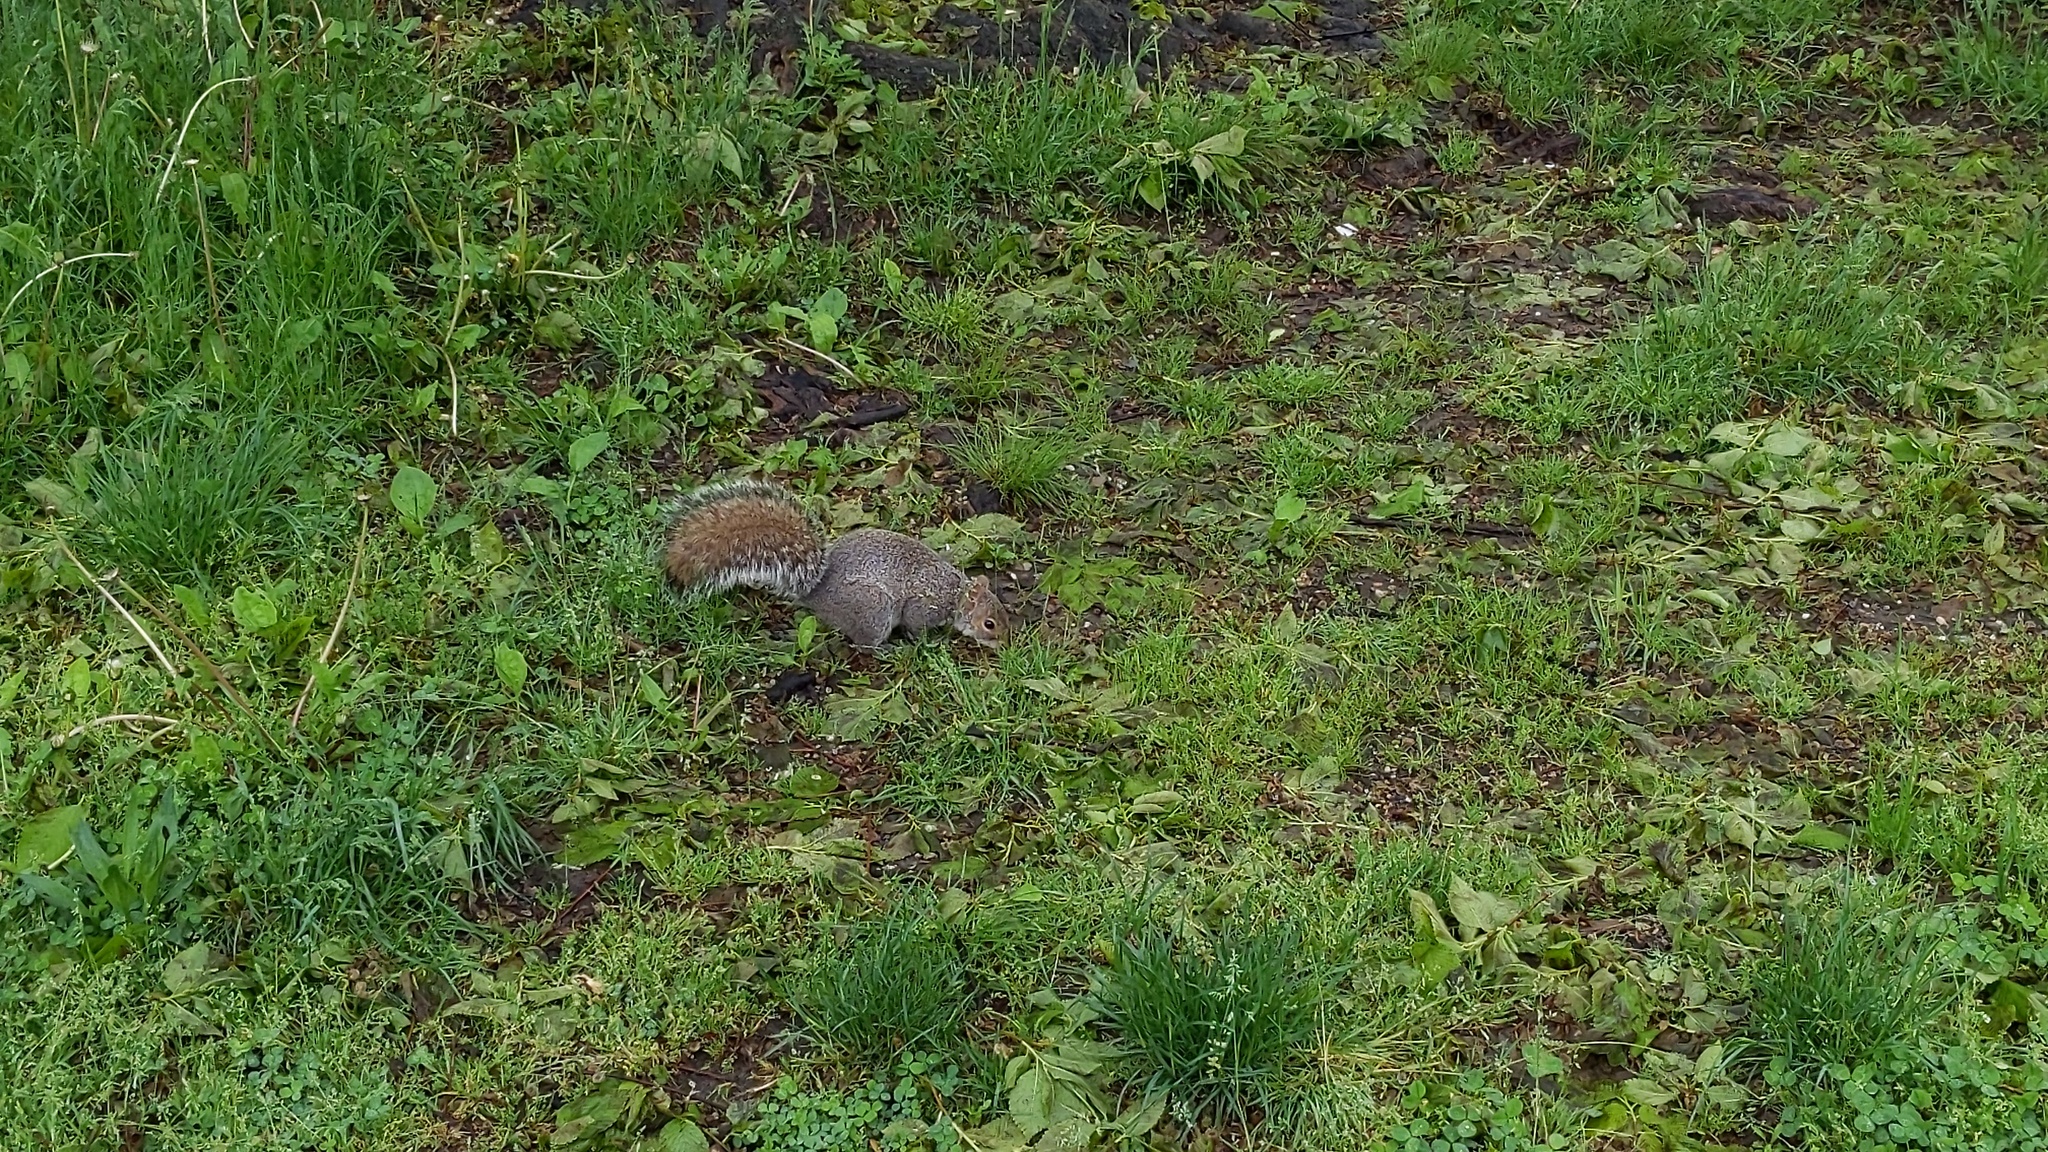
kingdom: Animalia
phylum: Chordata
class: Mammalia
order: Rodentia
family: Sciuridae
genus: Sciurus
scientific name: Sciurus carolinensis
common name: Eastern gray squirrel
